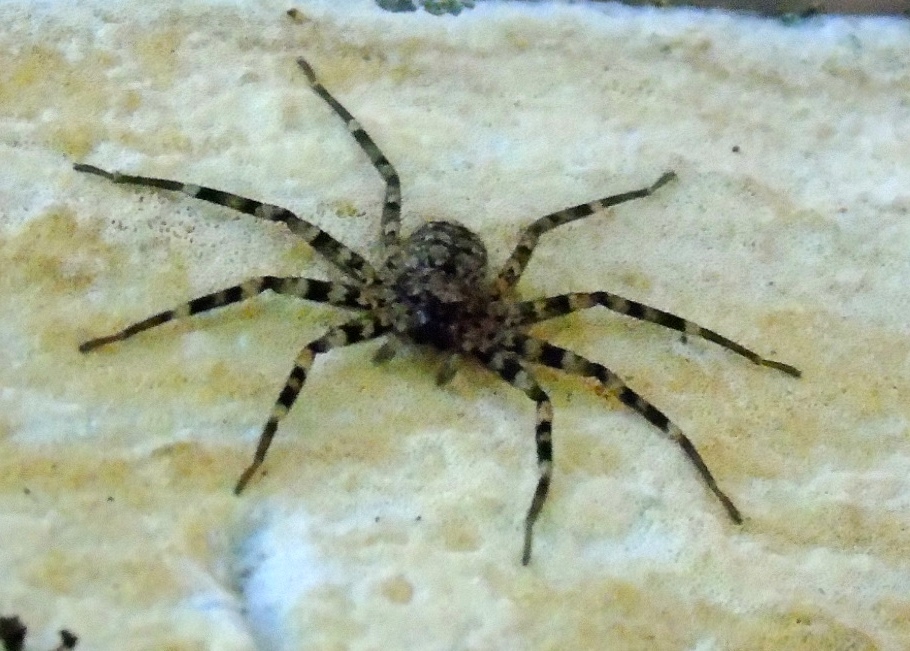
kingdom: Animalia
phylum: Arthropoda
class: Arachnida
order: Araneae
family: Selenopidae
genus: Selenops
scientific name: Selenops mexicanus
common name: Wall crab spiders
